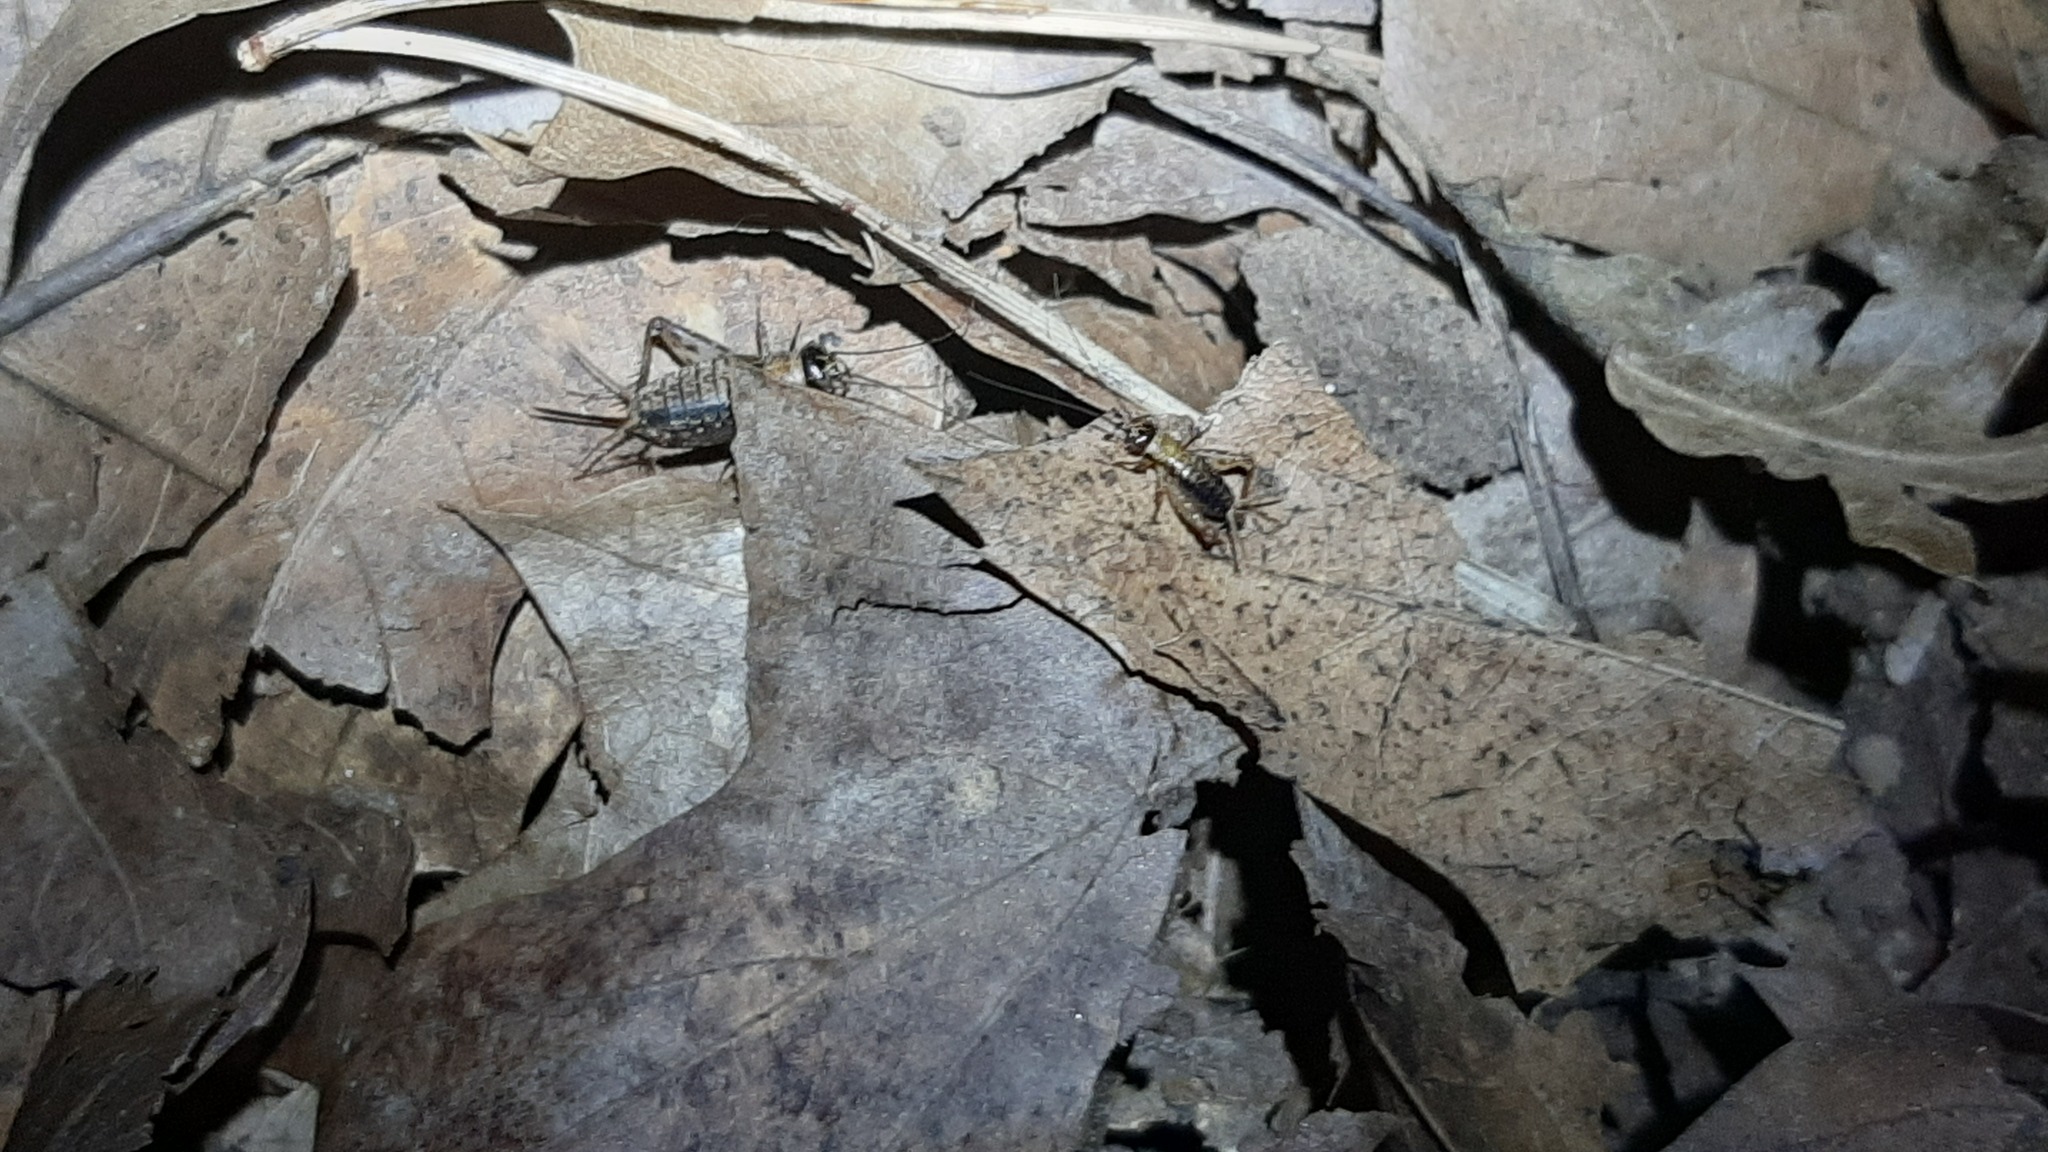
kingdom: Animalia
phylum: Arthropoda
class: Insecta
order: Orthoptera
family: Trigonidiidae
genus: Nemobius
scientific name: Nemobius sylvestris
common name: Wood-cricket
